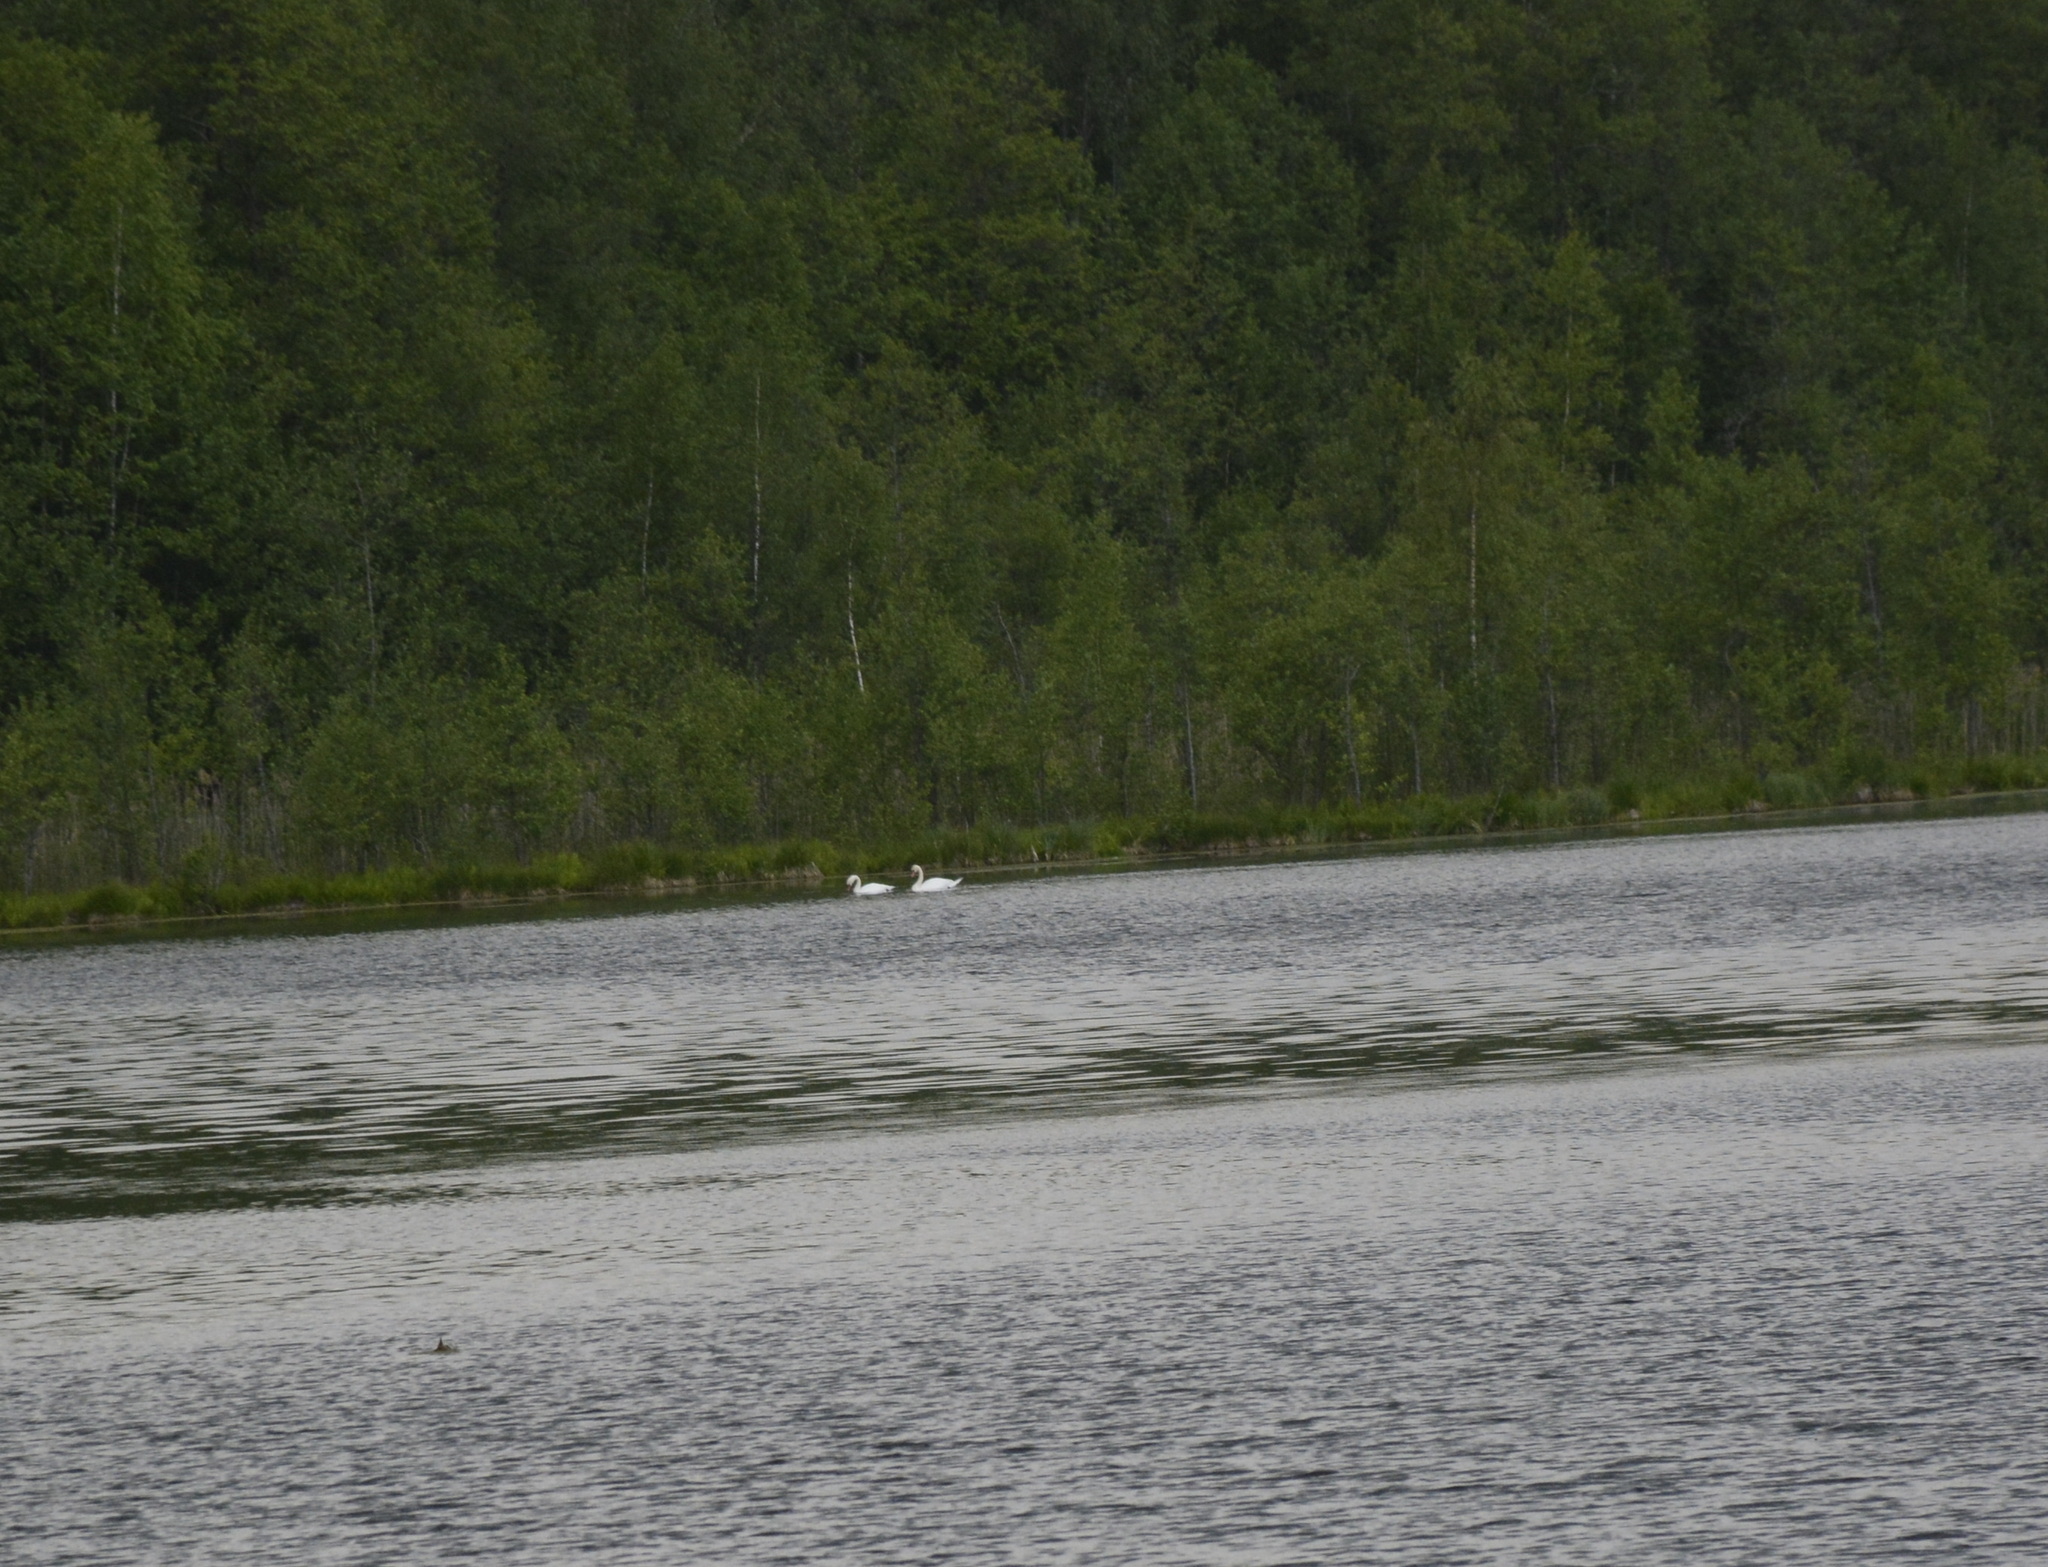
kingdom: Animalia
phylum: Chordata
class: Aves
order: Anseriformes
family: Anatidae
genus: Cygnus
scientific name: Cygnus olor
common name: Mute swan
